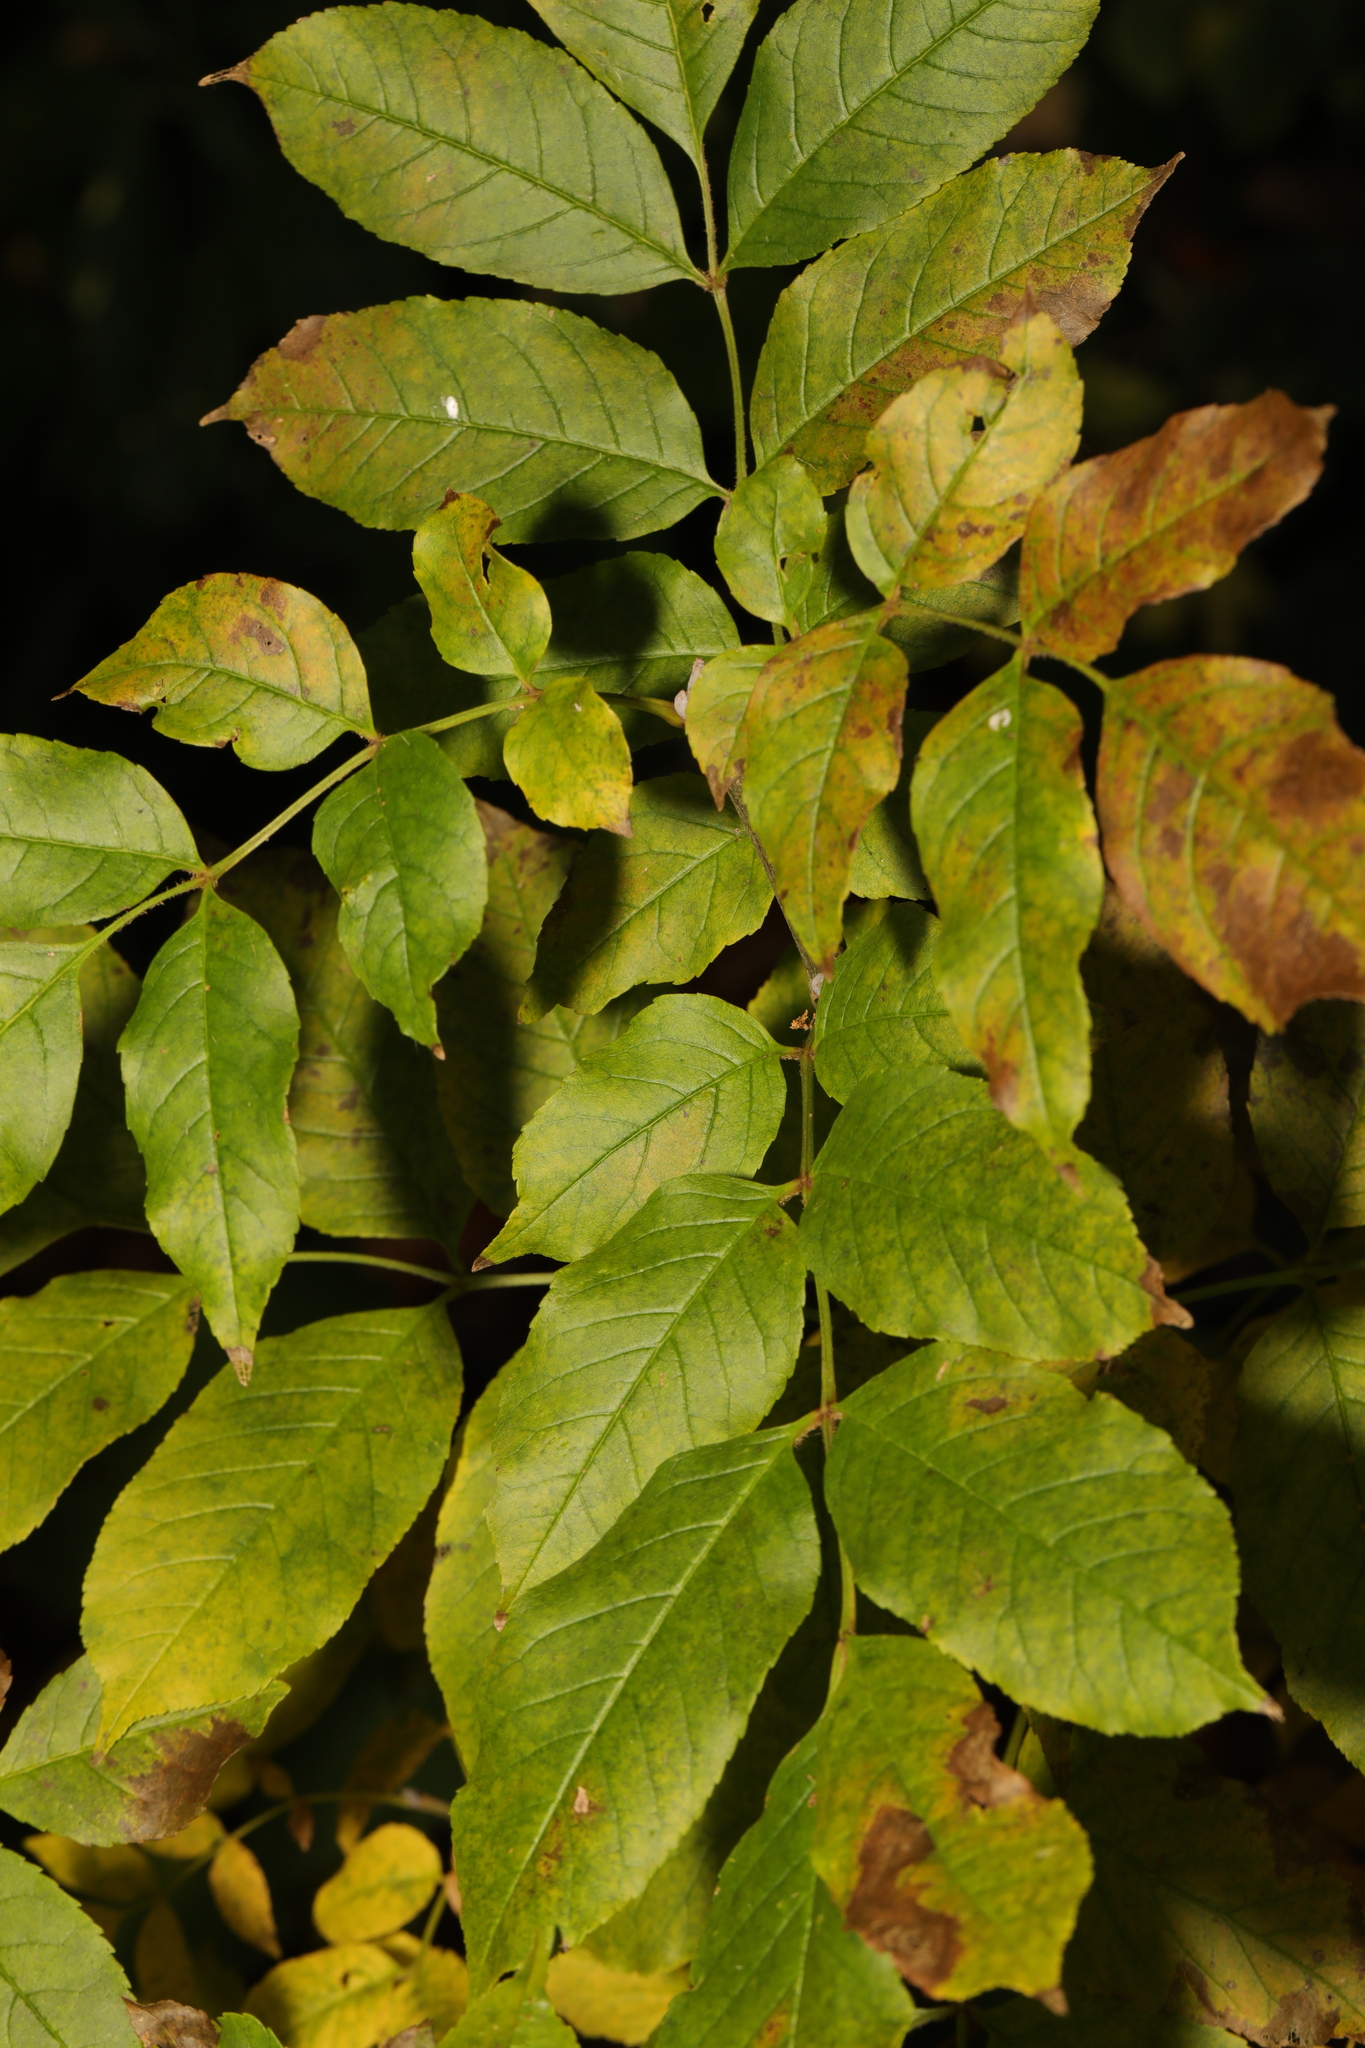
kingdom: Plantae
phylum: Tracheophyta
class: Magnoliopsida
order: Lamiales
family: Oleaceae
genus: Fraxinus
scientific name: Fraxinus excelsior
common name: European ash
